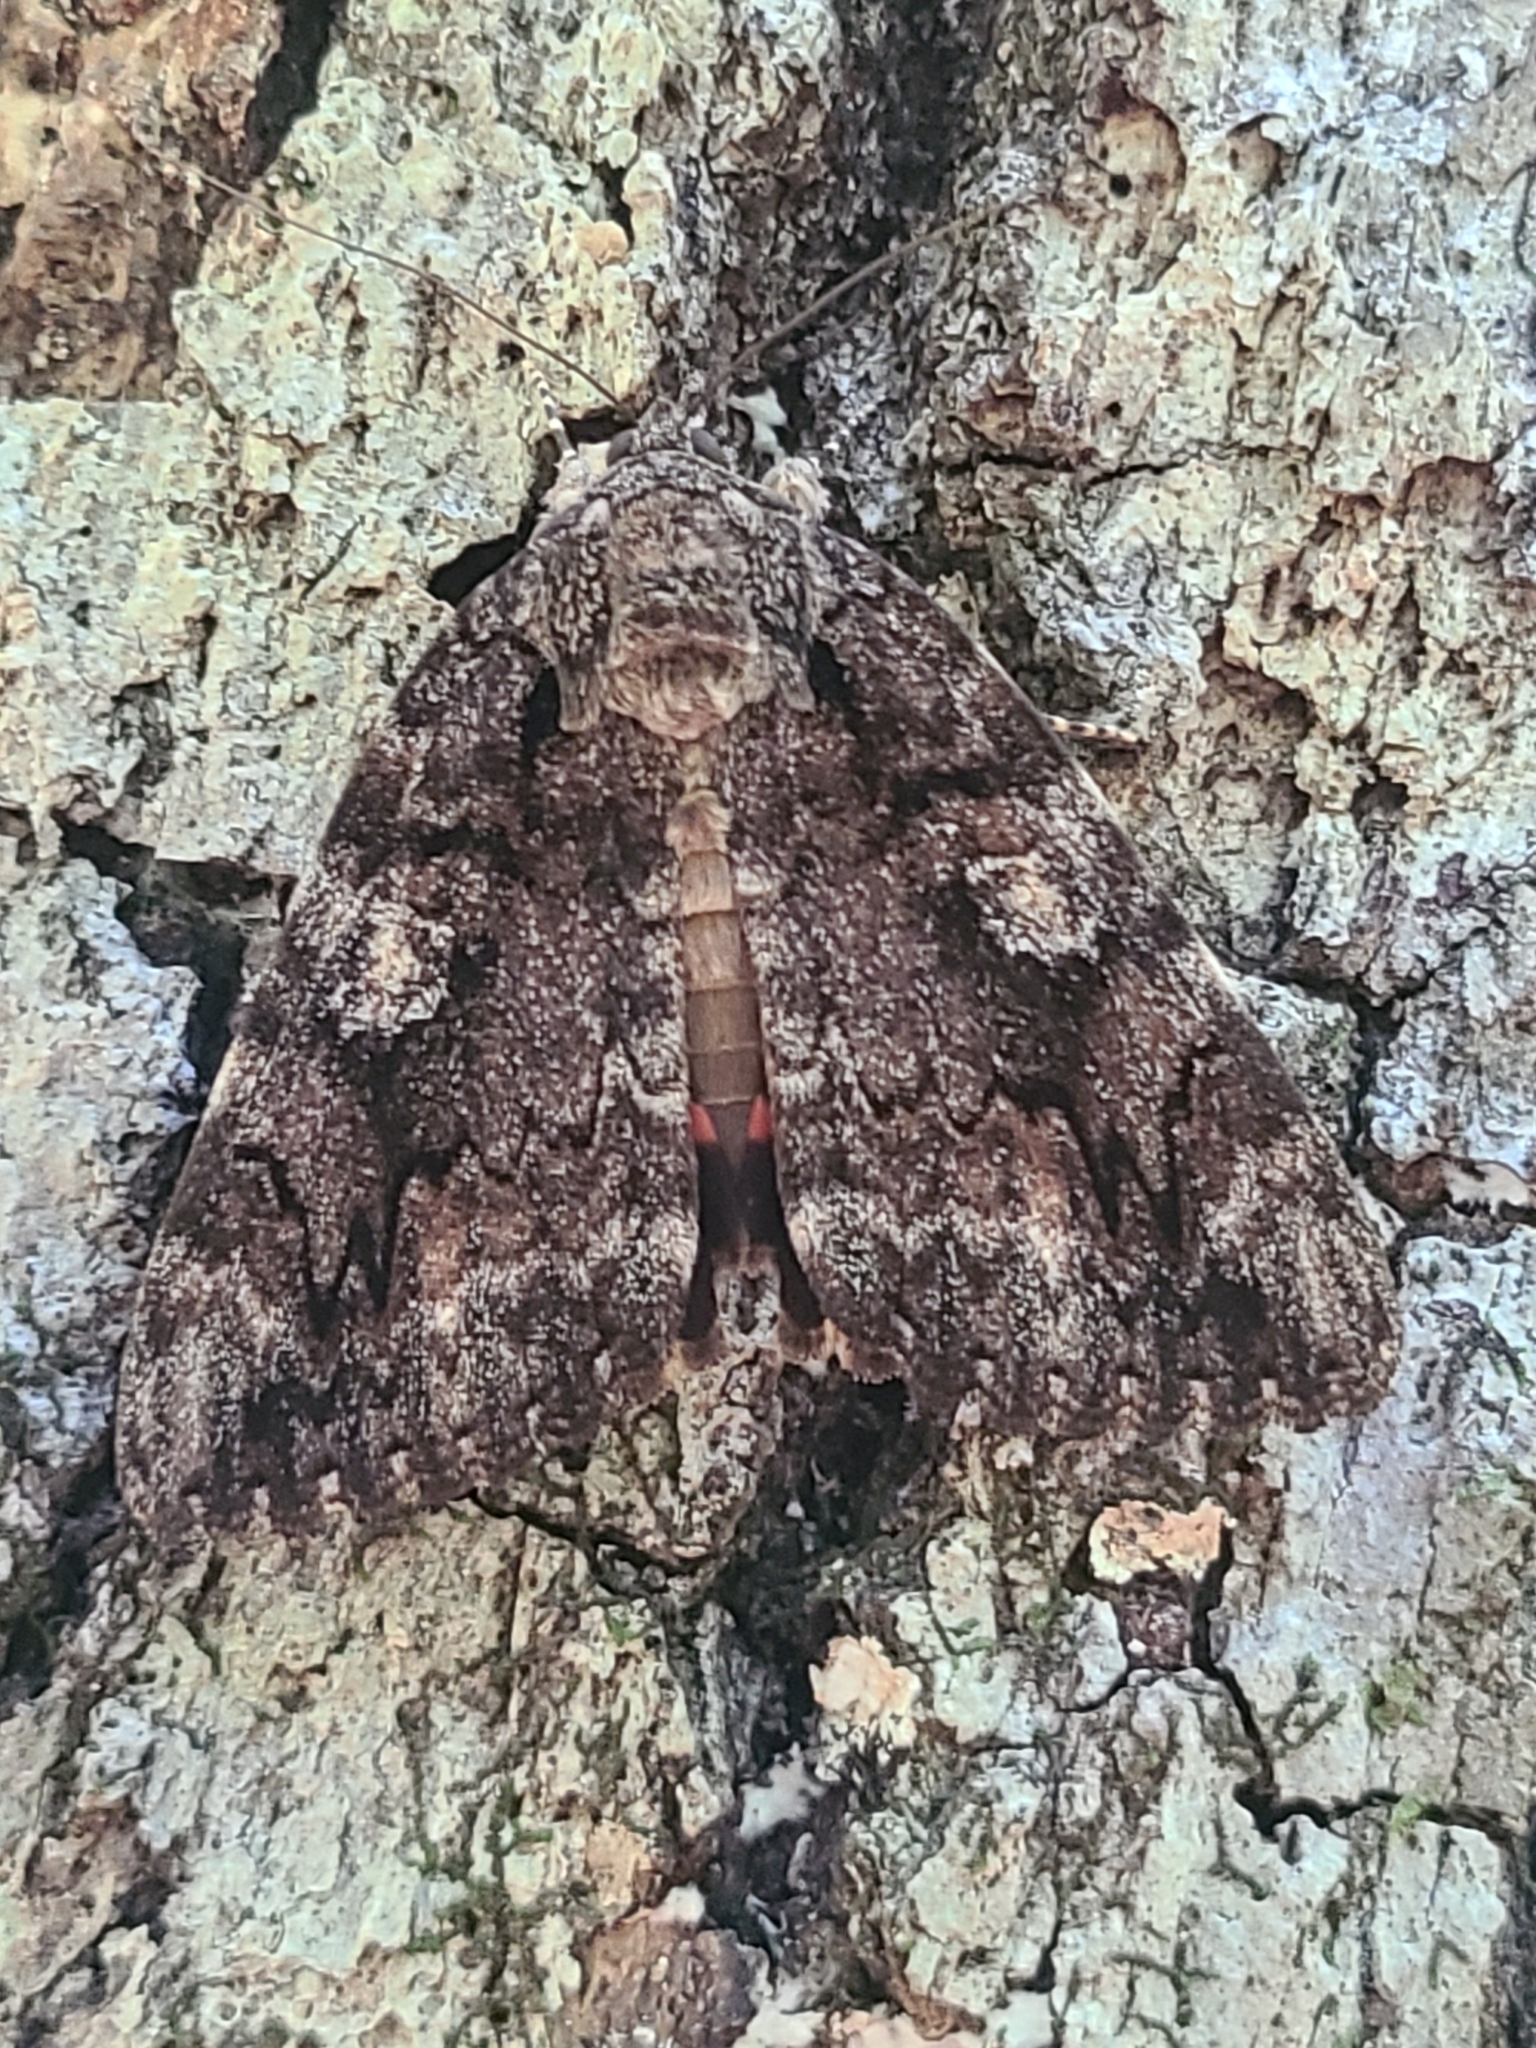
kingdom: Animalia
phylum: Arthropoda
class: Insecta
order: Lepidoptera
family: Erebidae
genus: Catocala
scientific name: Catocala ilia
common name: Ilia underwing
